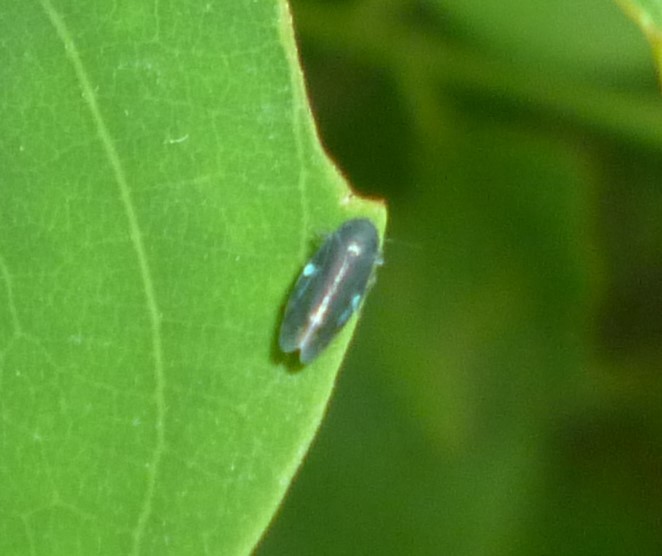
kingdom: Animalia
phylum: Arthropoda
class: Insecta
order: Hemiptera
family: Cicadellidae
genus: Xestocephalus
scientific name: Xestocephalus brunneus
